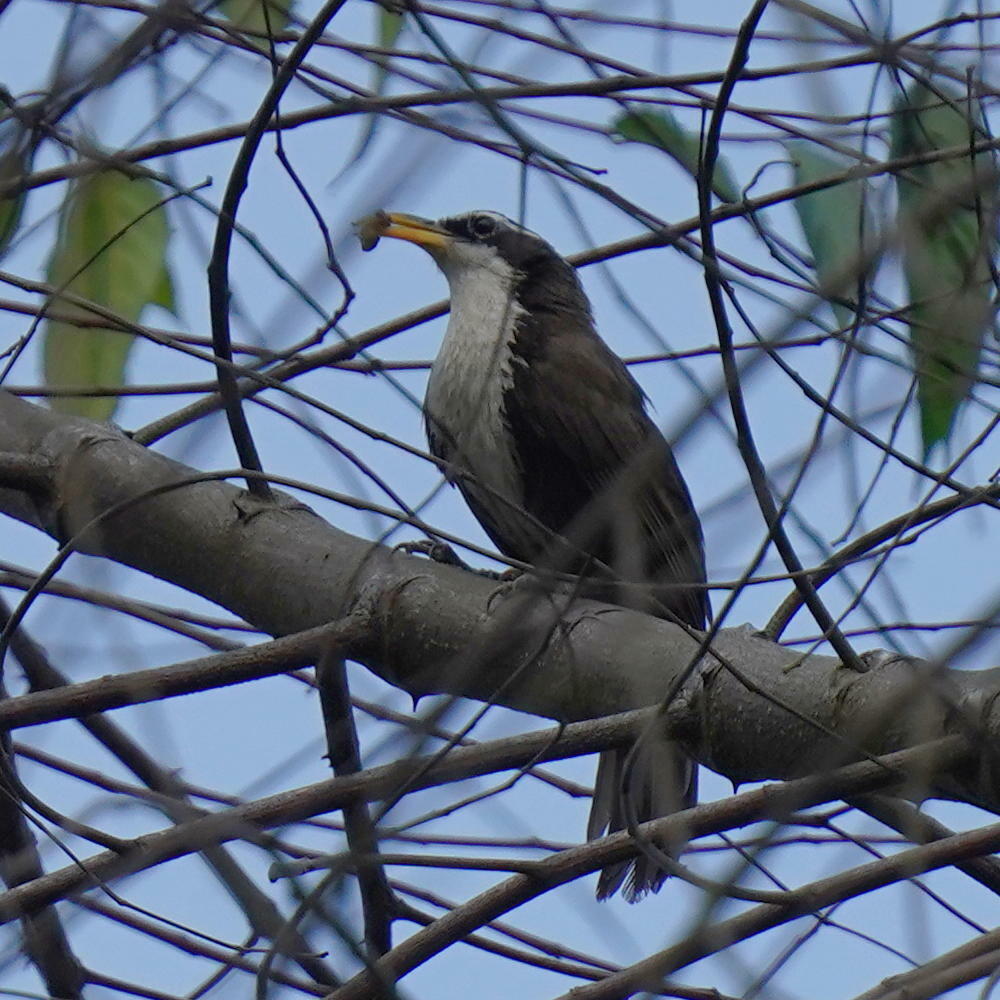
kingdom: Animalia
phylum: Chordata
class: Aves
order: Passeriformes
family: Timaliidae
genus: Pomatorhinus
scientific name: Pomatorhinus horsfieldii
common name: Indian scimitar babbler
